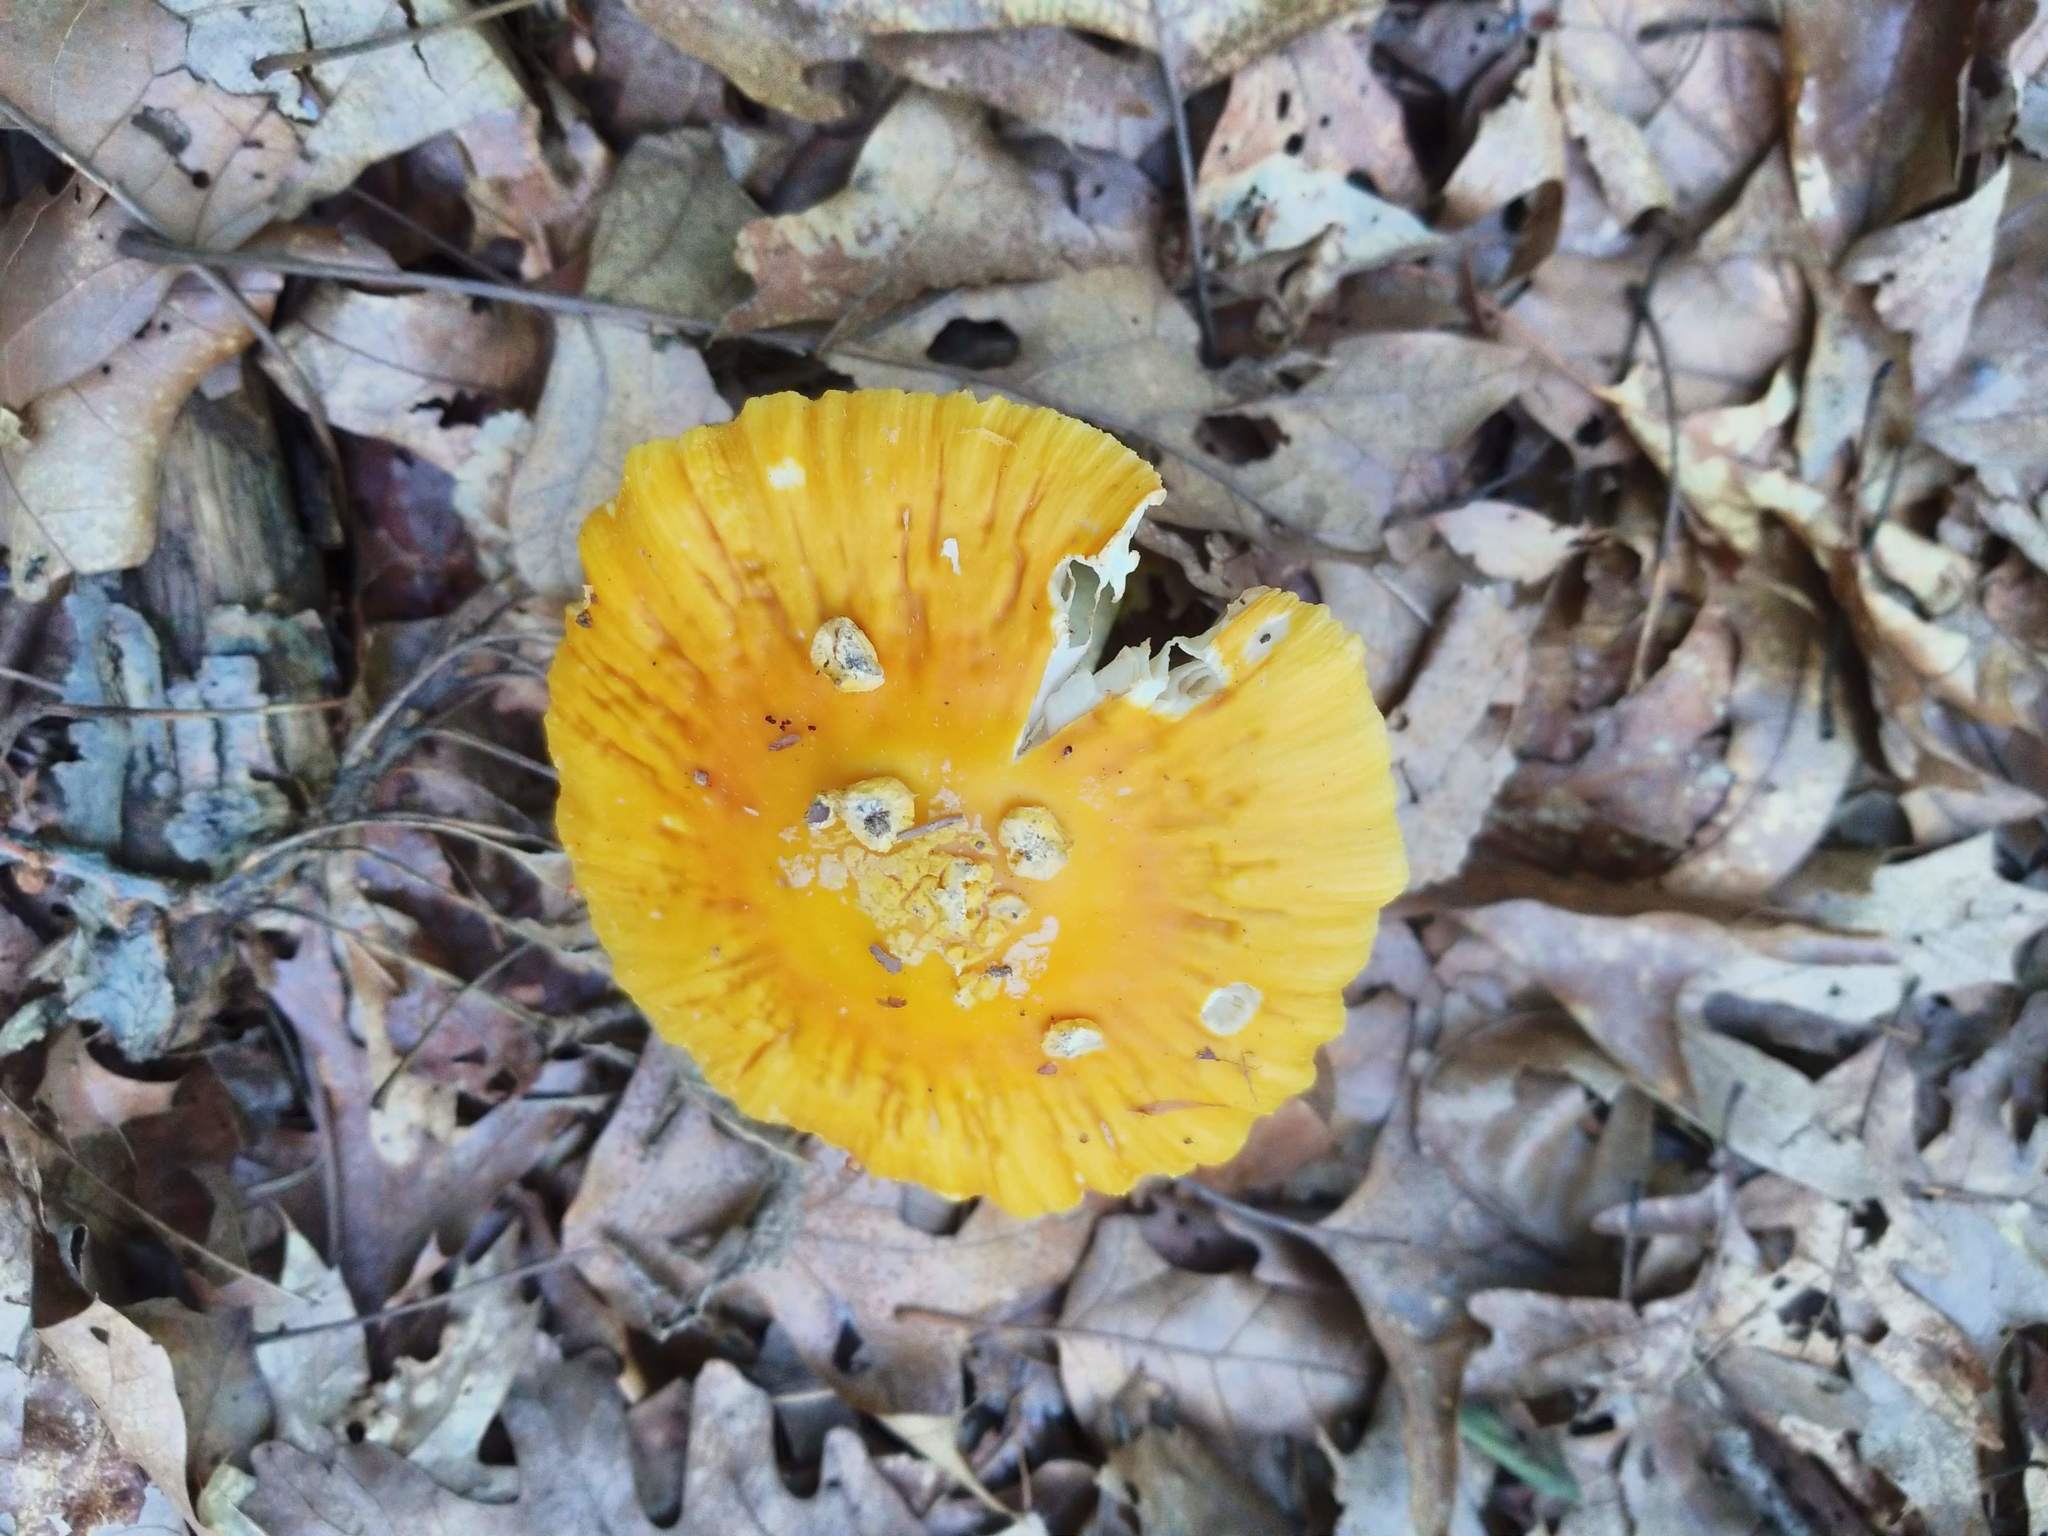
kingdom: Fungi
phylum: Basidiomycota
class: Agaricomycetes
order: Agaricales
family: Amanitaceae
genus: Amanita
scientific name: Amanita flavoconia
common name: Yellow patches
